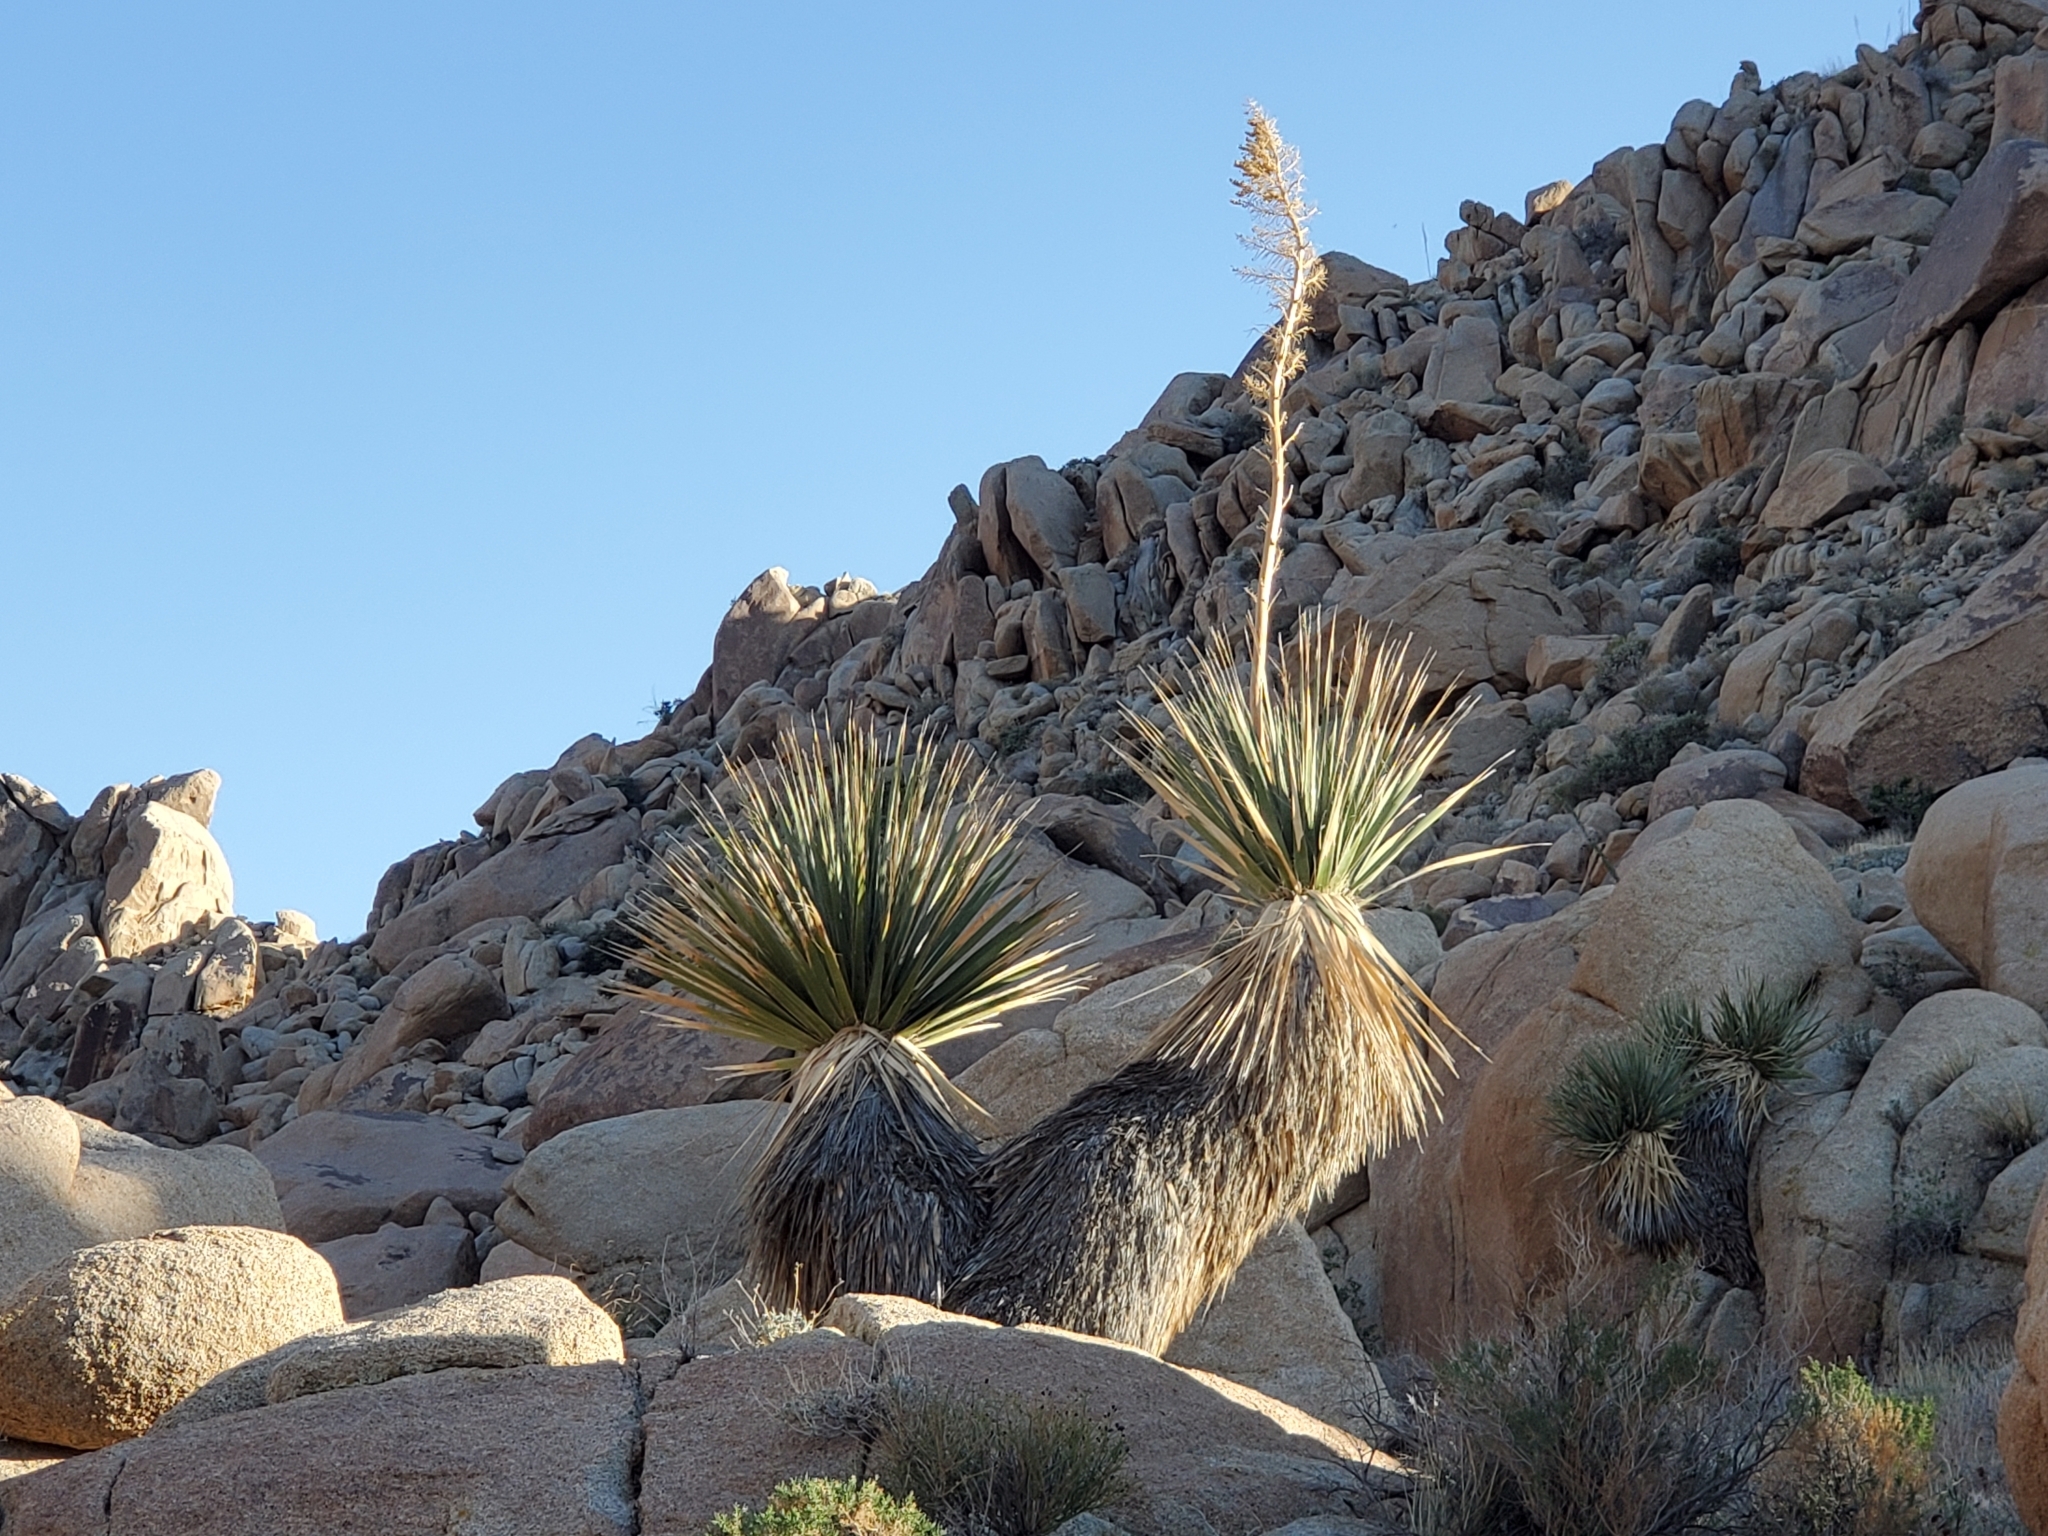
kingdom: Plantae
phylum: Tracheophyta
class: Liliopsida
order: Asparagales
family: Asparagaceae
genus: Nolina
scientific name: Nolina bigelovii
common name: Bigelow bear-grass
